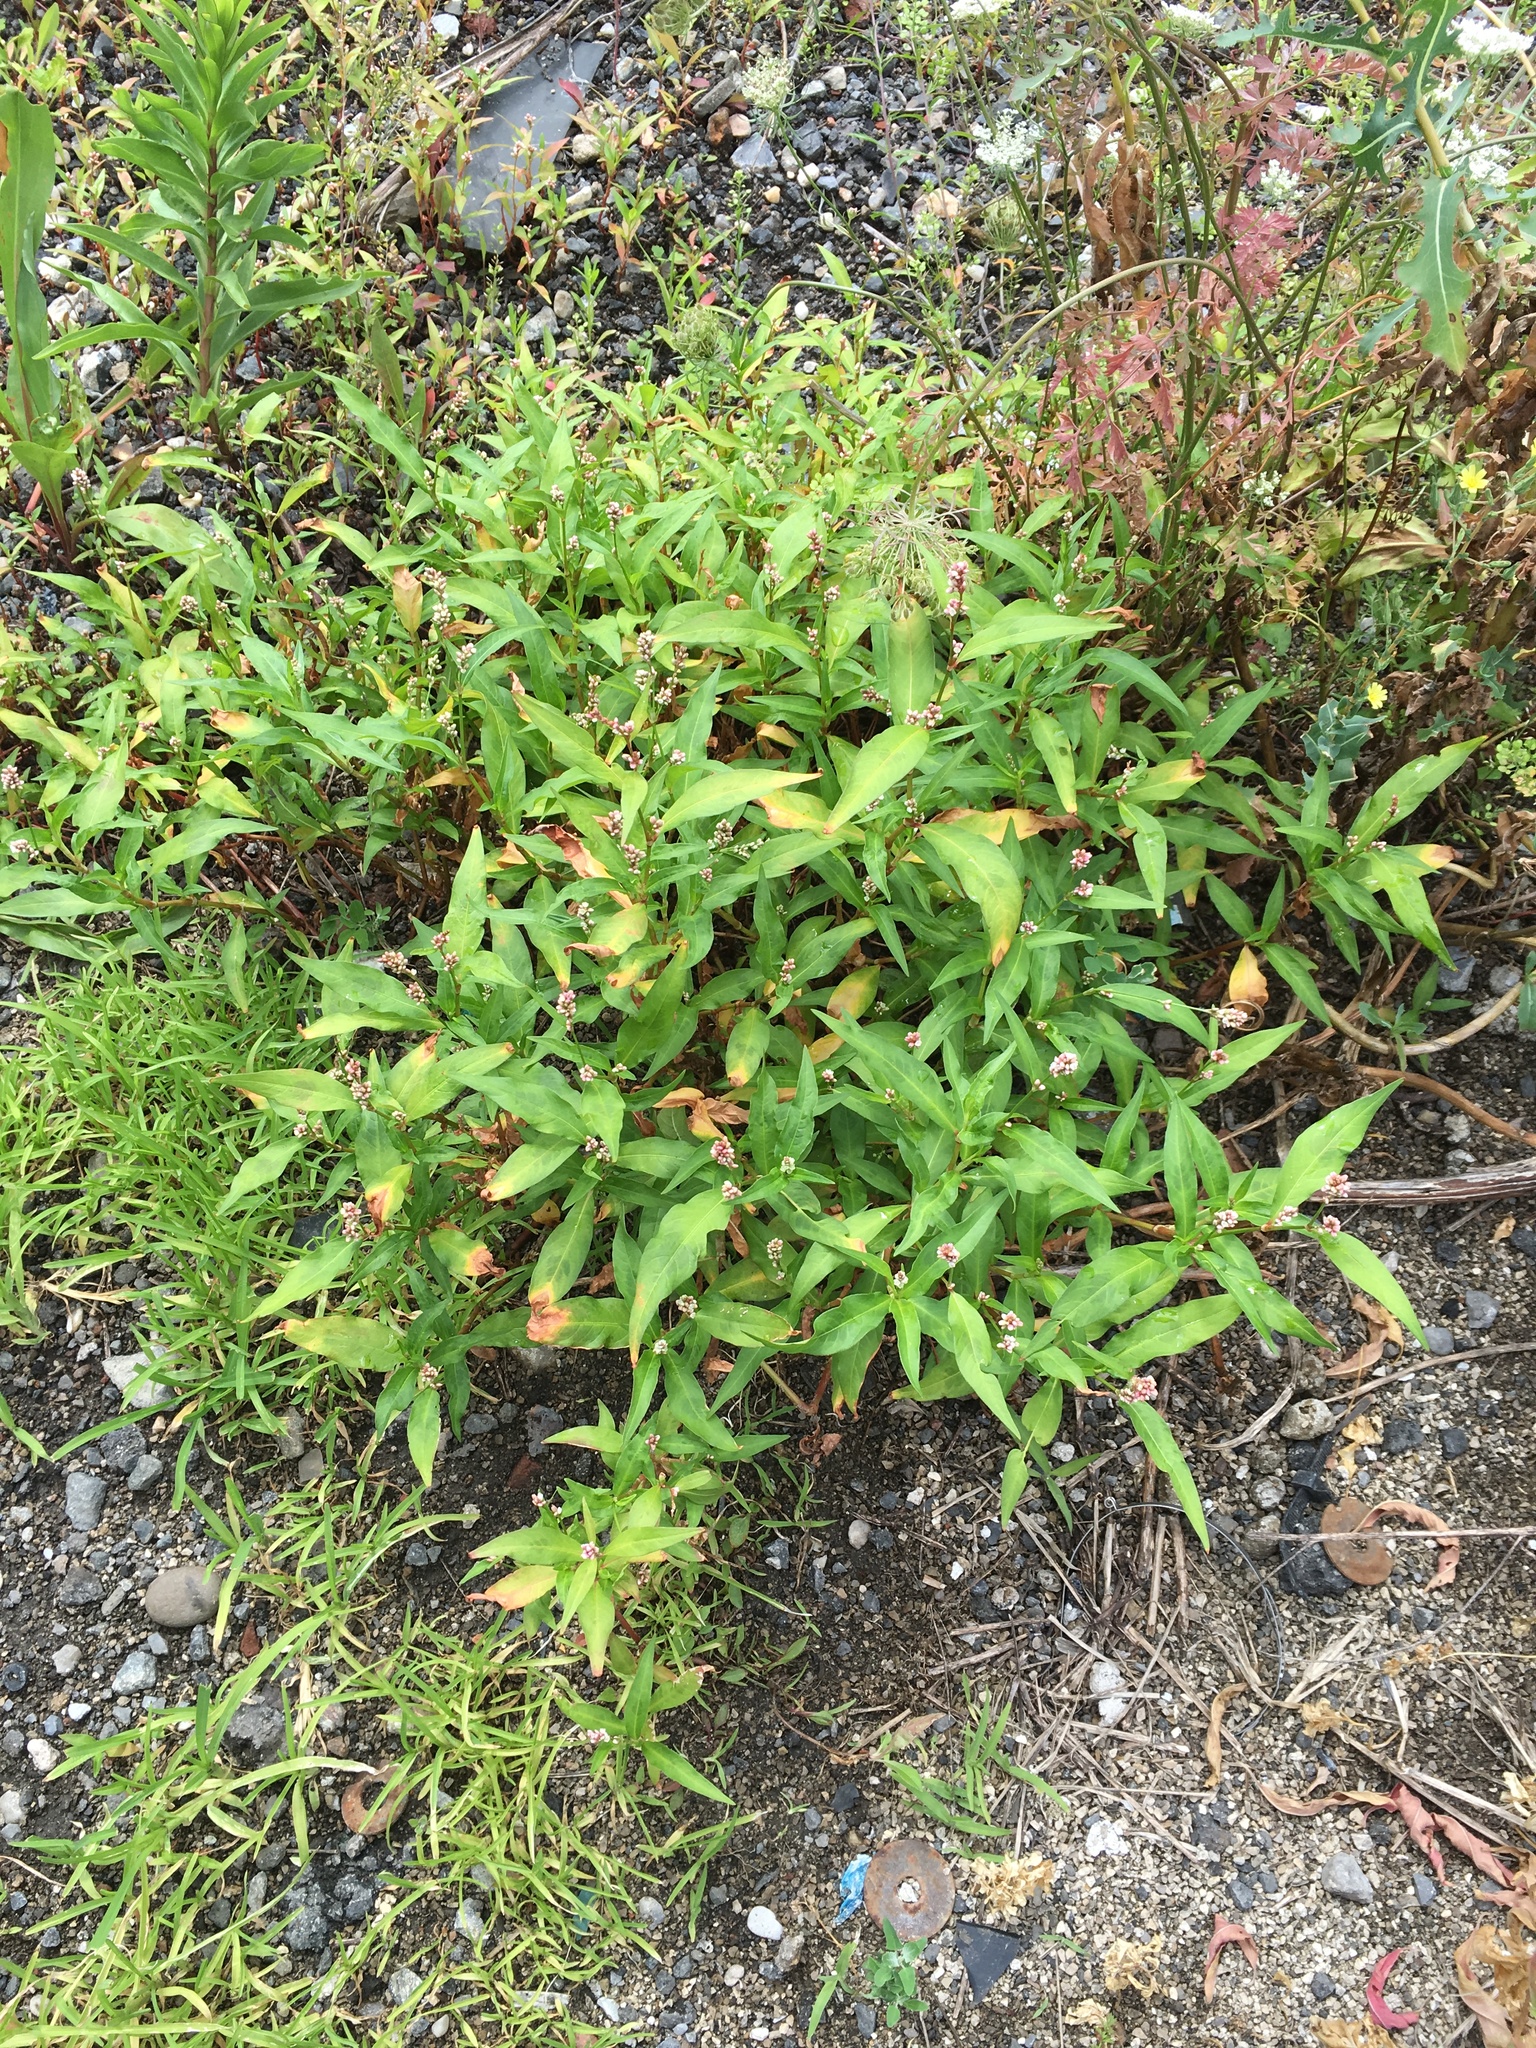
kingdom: Plantae
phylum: Tracheophyta
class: Magnoliopsida
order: Caryophyllales
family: Polygonaceae
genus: Persicaria
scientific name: Persicaria maculosa
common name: Redshank
